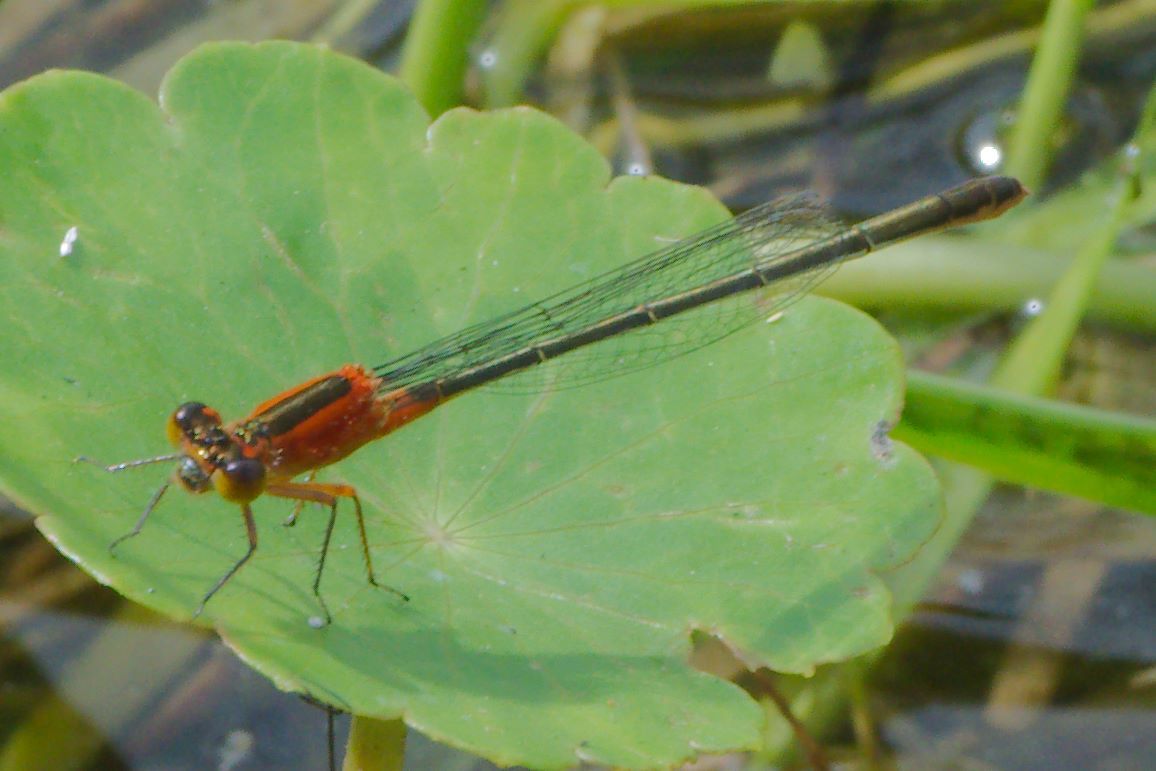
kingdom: Animalia
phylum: Arthropoda
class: Insecta
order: Odonata
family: Coenagrionidae
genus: Ischnura
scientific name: Ischnura ramburii
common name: Rambur's forktail
